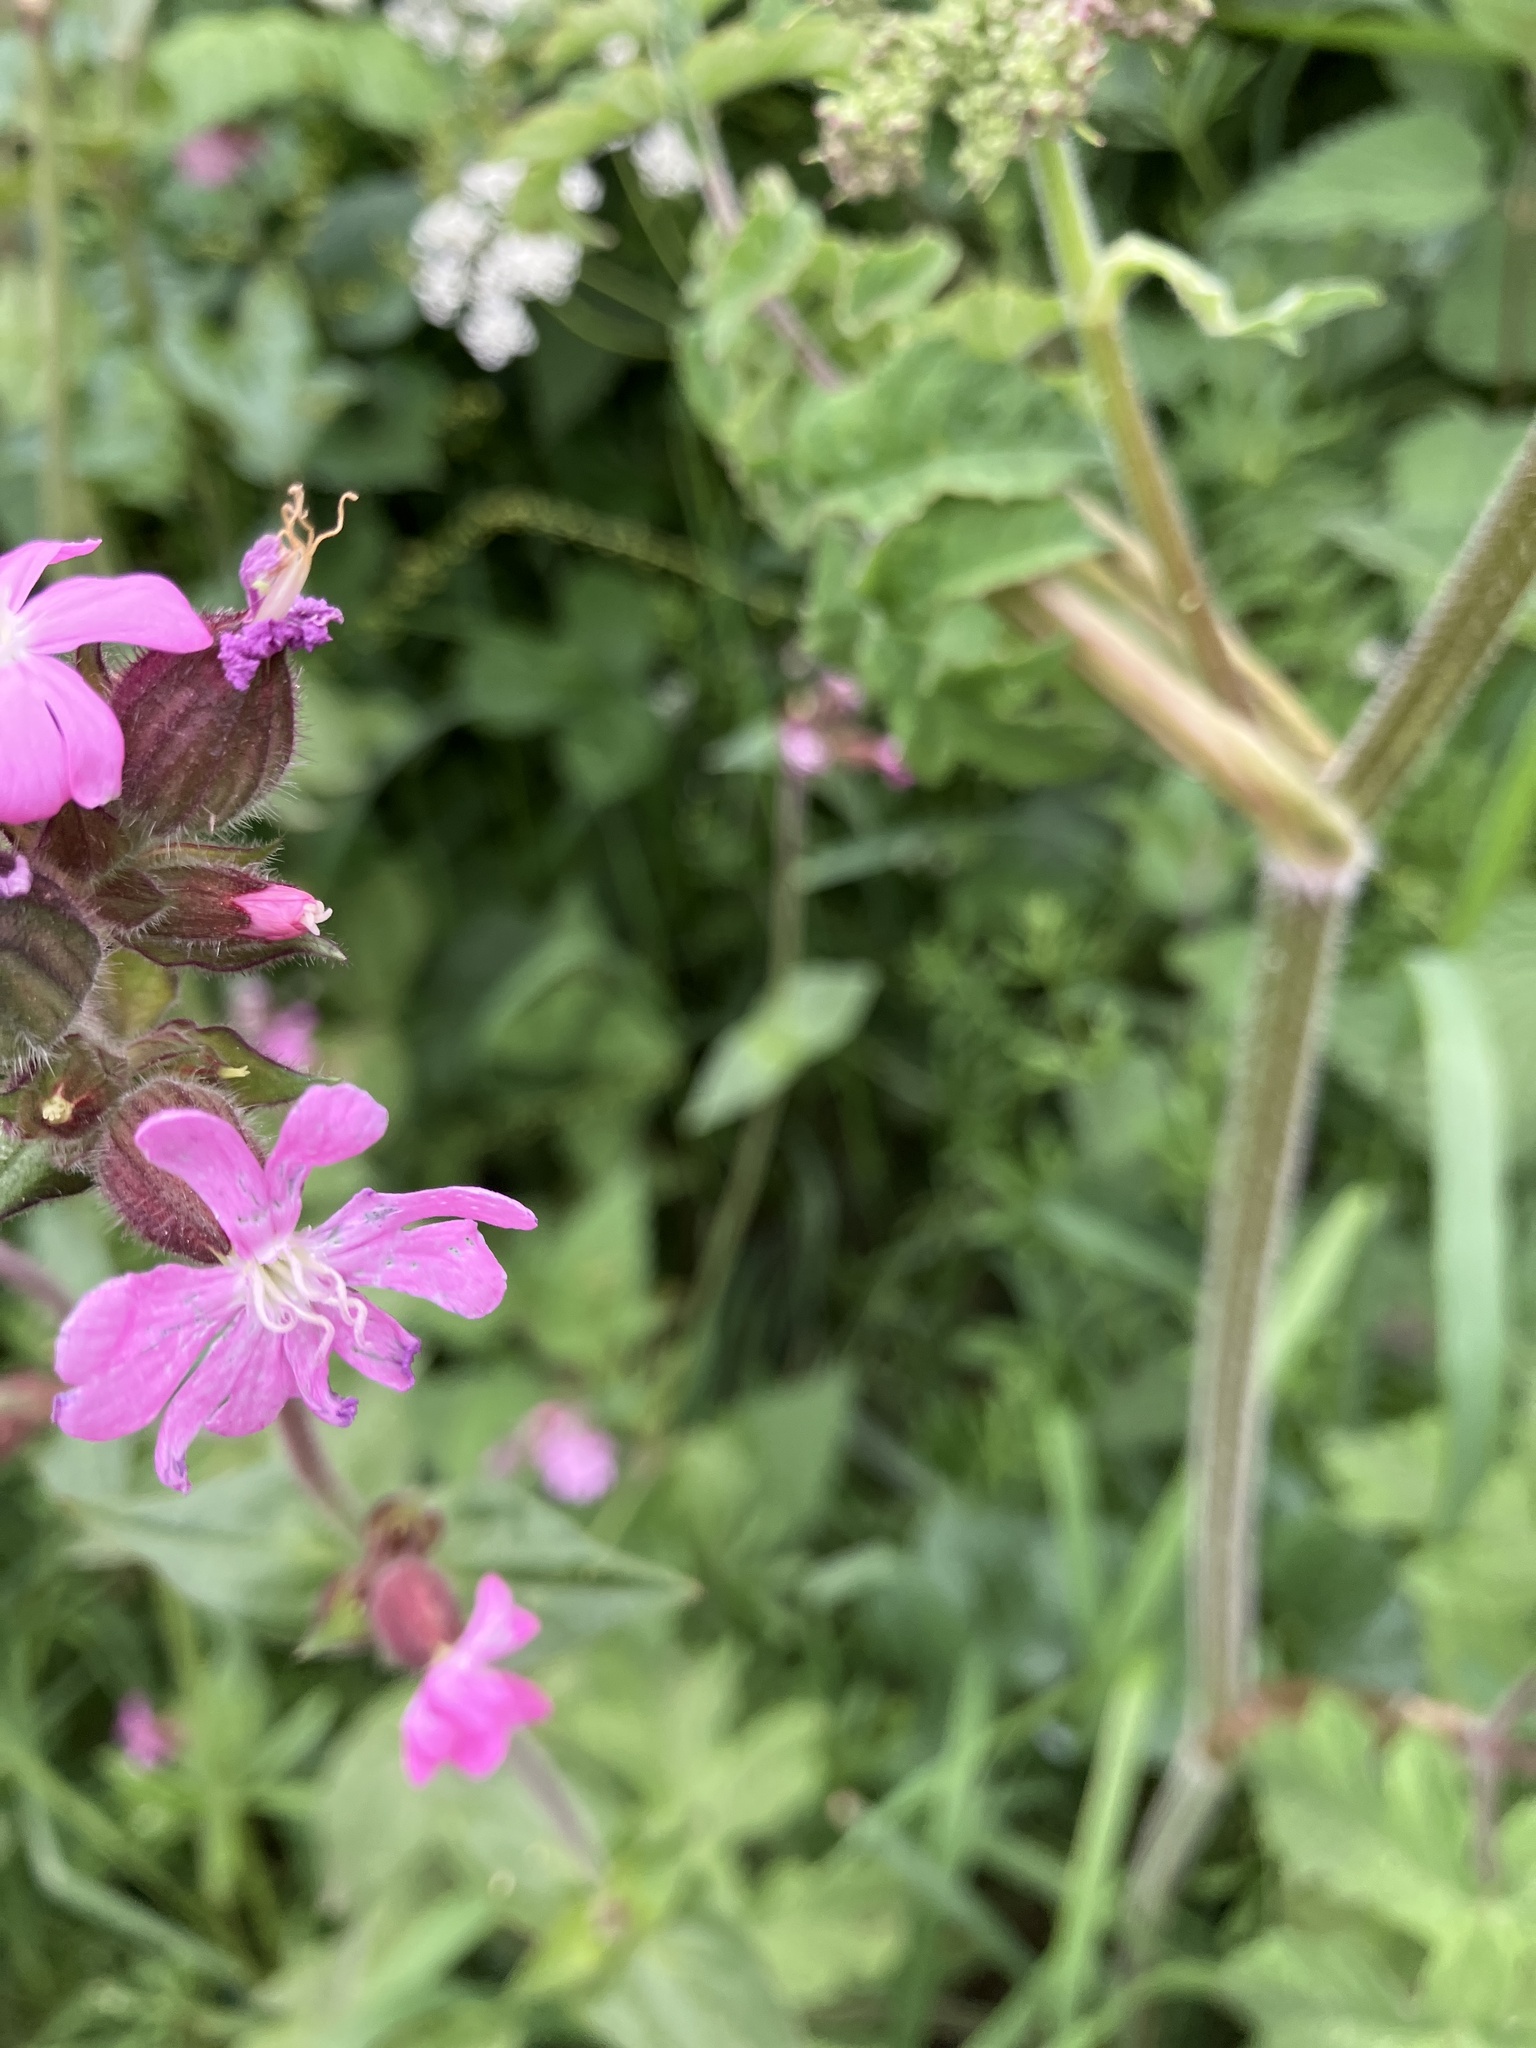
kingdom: Plantae
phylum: Tracheophyta
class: Magnoliopsida
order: Caryophyllales
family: Caryophyllaceae
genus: Silene
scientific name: Silene dioica
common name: Red campion
